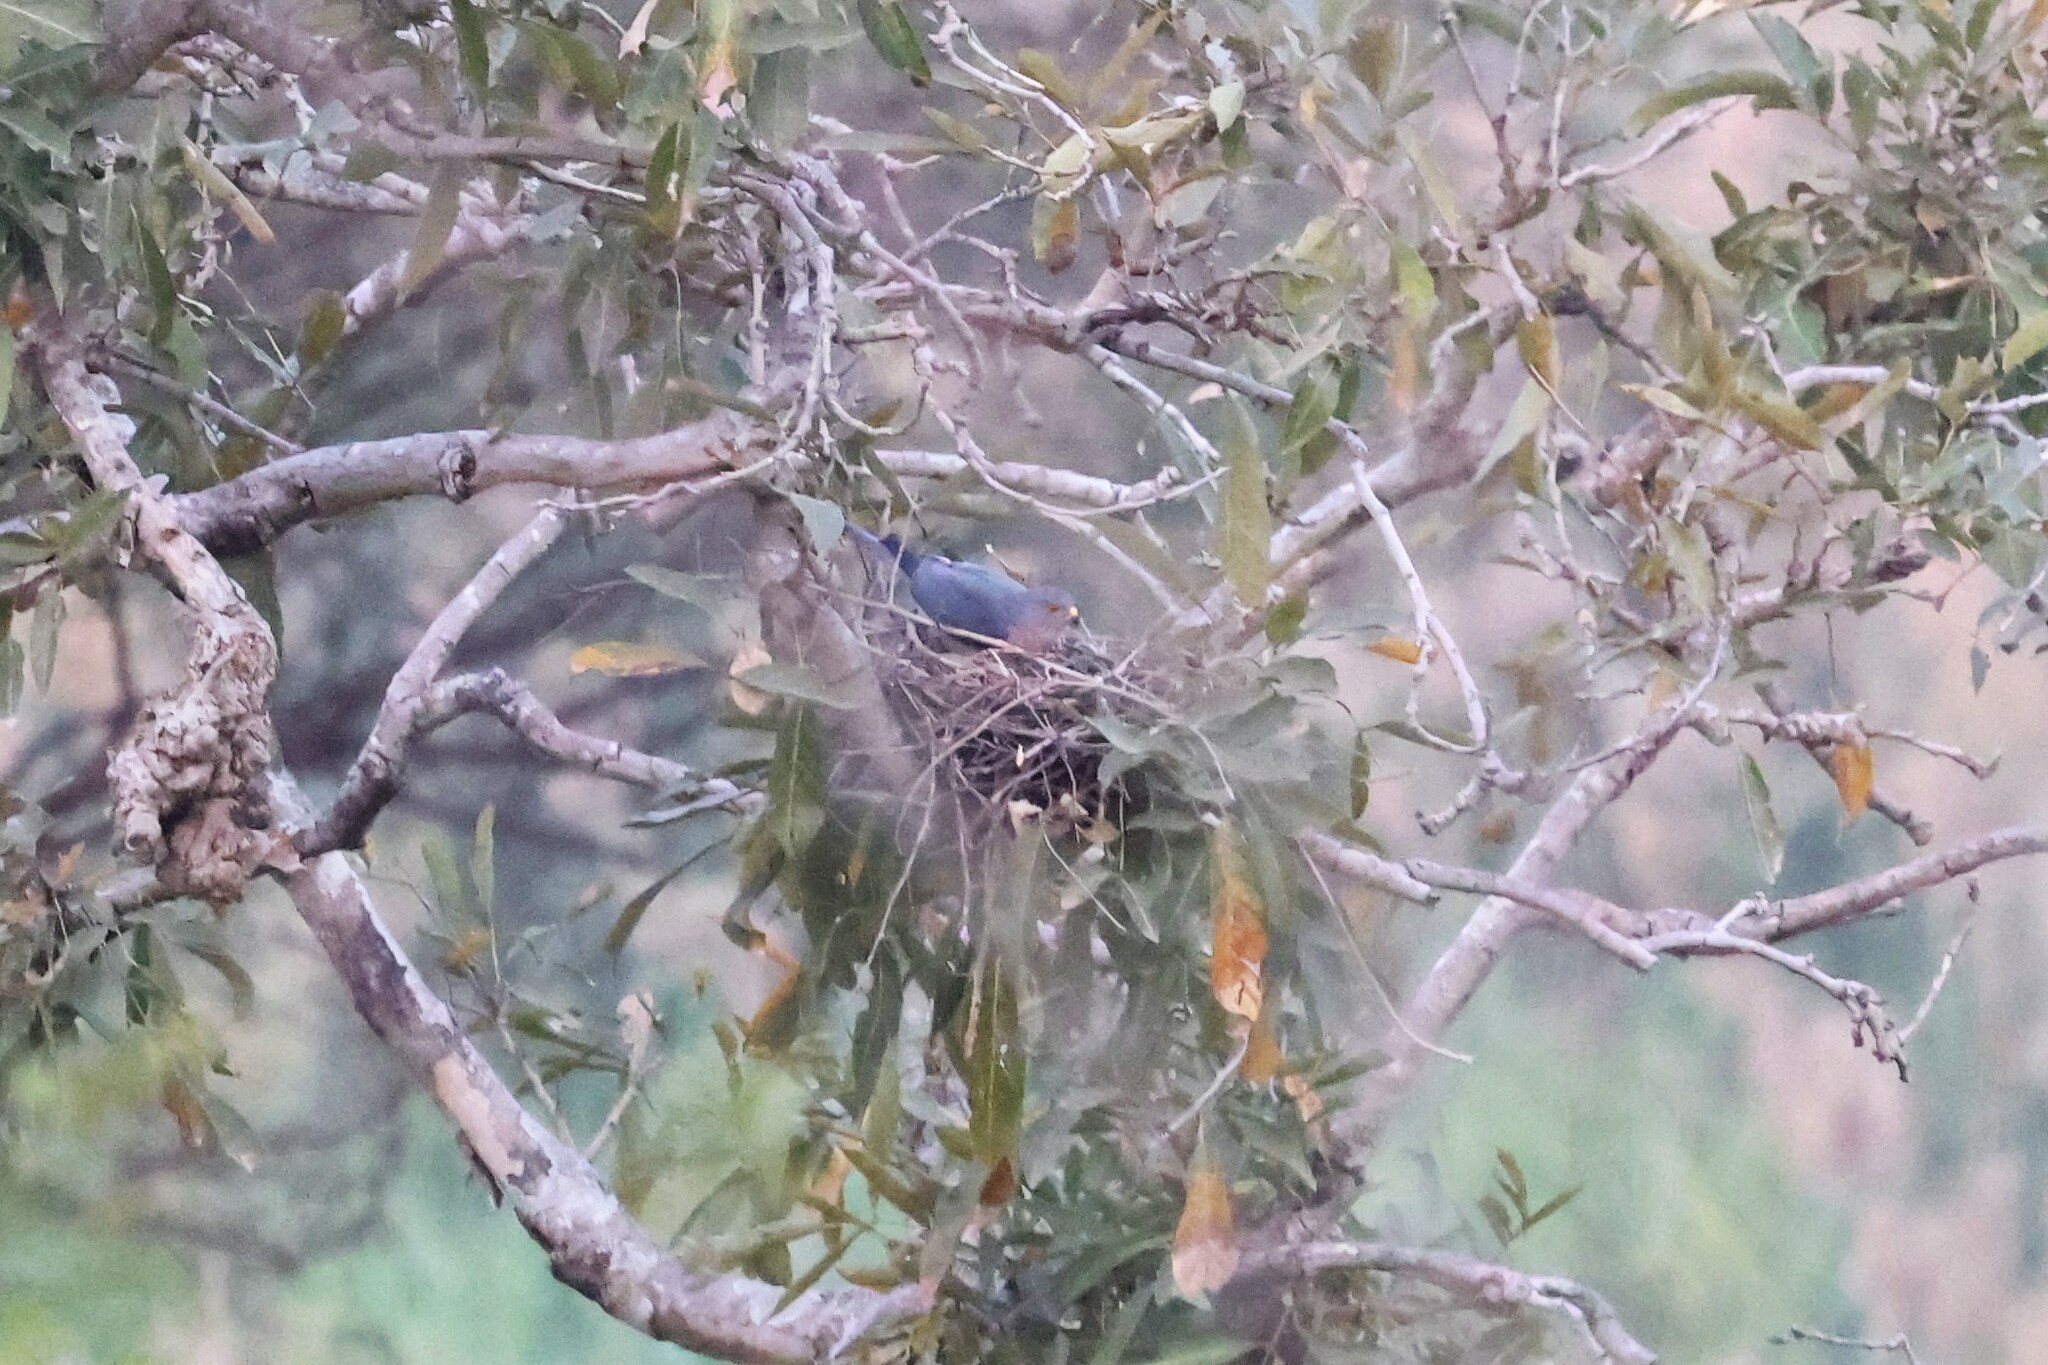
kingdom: Animalia
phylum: Chordata
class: Aves
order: Accipitriformes
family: Accipitridae
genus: Accipiter
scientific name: Accipiter badius
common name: Shikra
